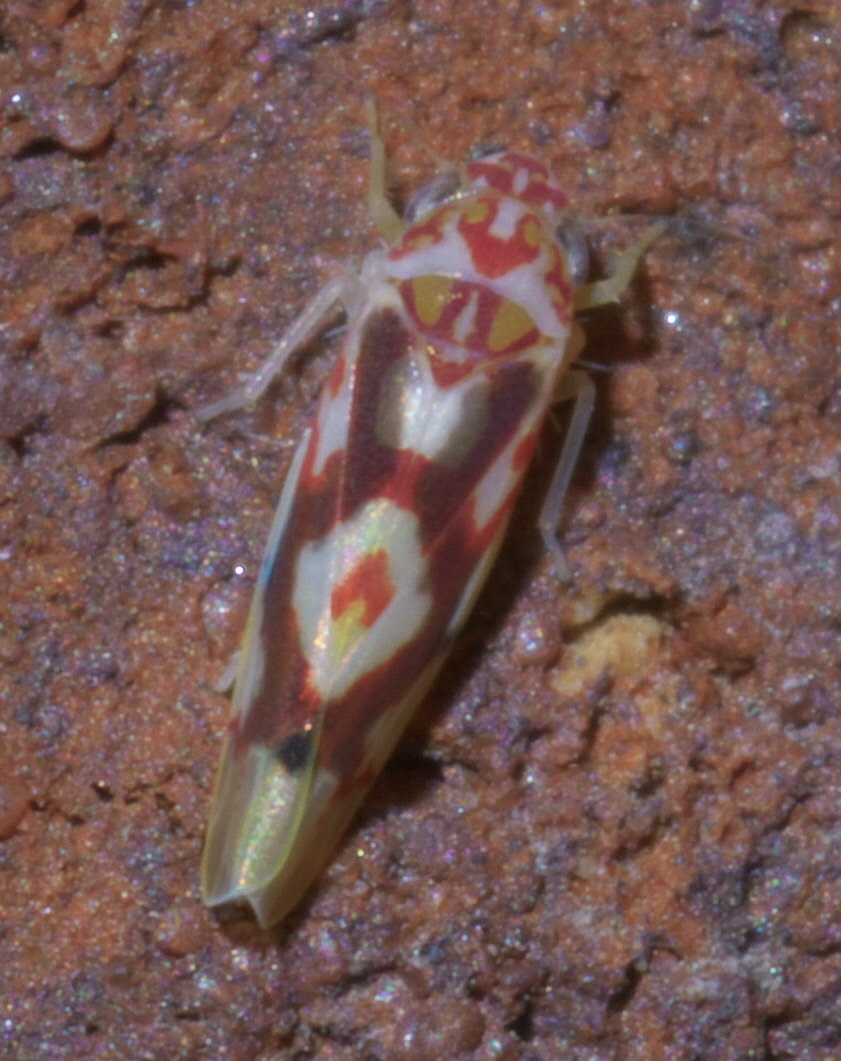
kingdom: Animalia
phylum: Arthropoda
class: Insecta
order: Hemiptera
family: Cicadellidae
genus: Eratoneura
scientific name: Eratoneura ligata
